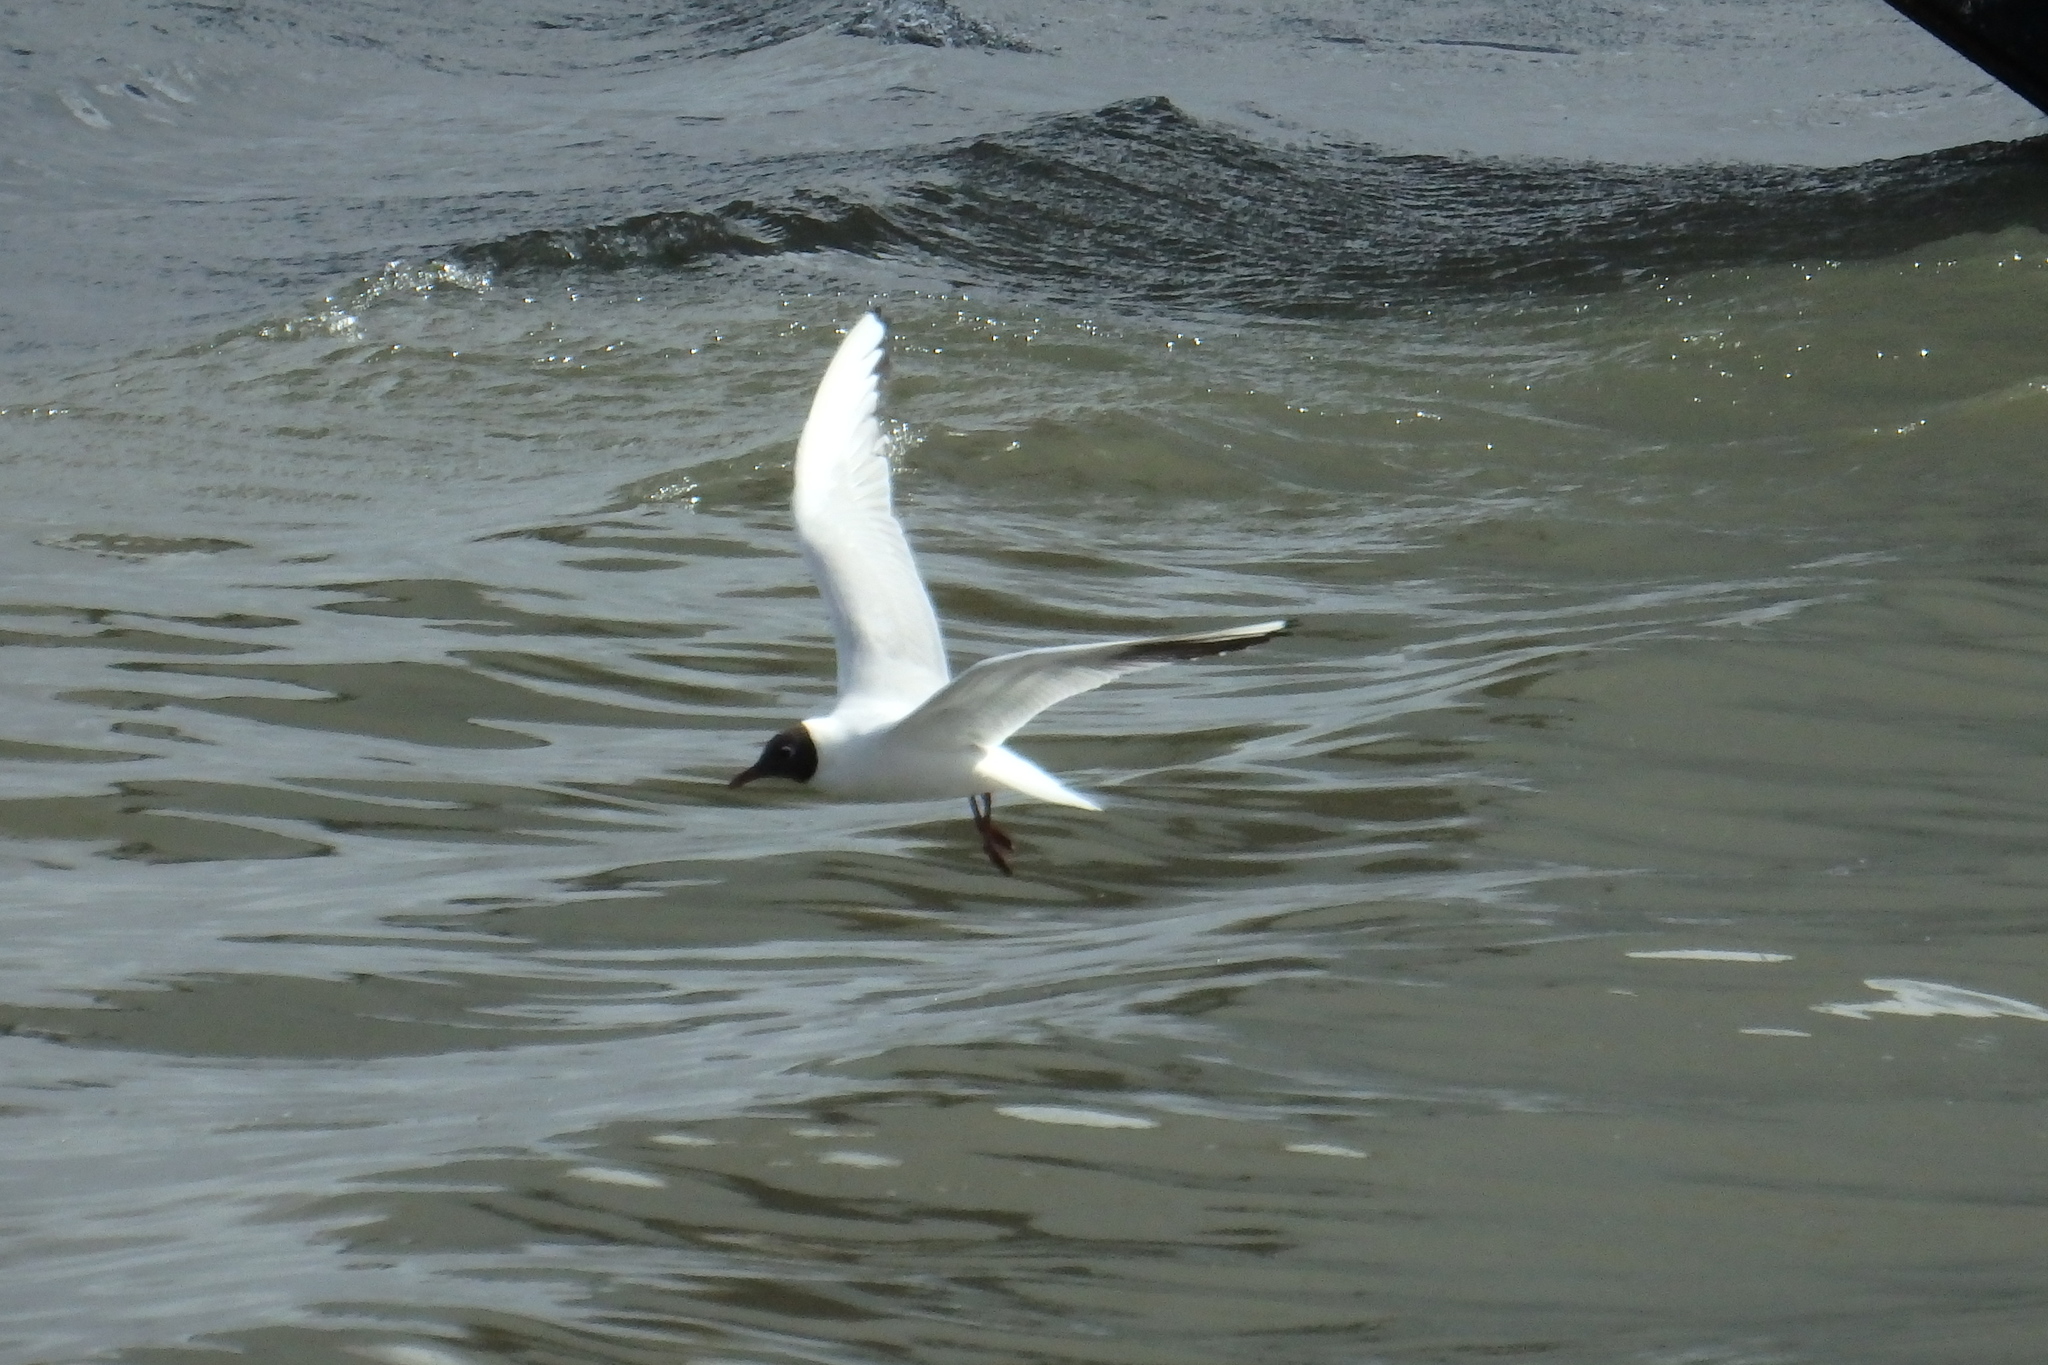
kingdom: Animalia
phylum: Chordata
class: Aves
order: Charadriiformes
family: Laridae
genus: Chroicocephalus
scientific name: Chroicocephalus ridibundus
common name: Black-headed gull
